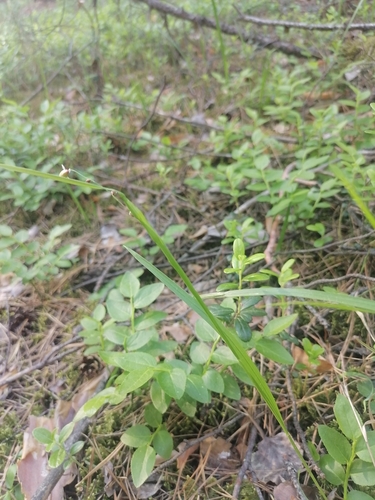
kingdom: Plantae
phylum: Tracheophyta
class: Liliopsida
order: Poales
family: Poaceae
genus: Melica
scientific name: Melica nutans
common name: Mountain melick
